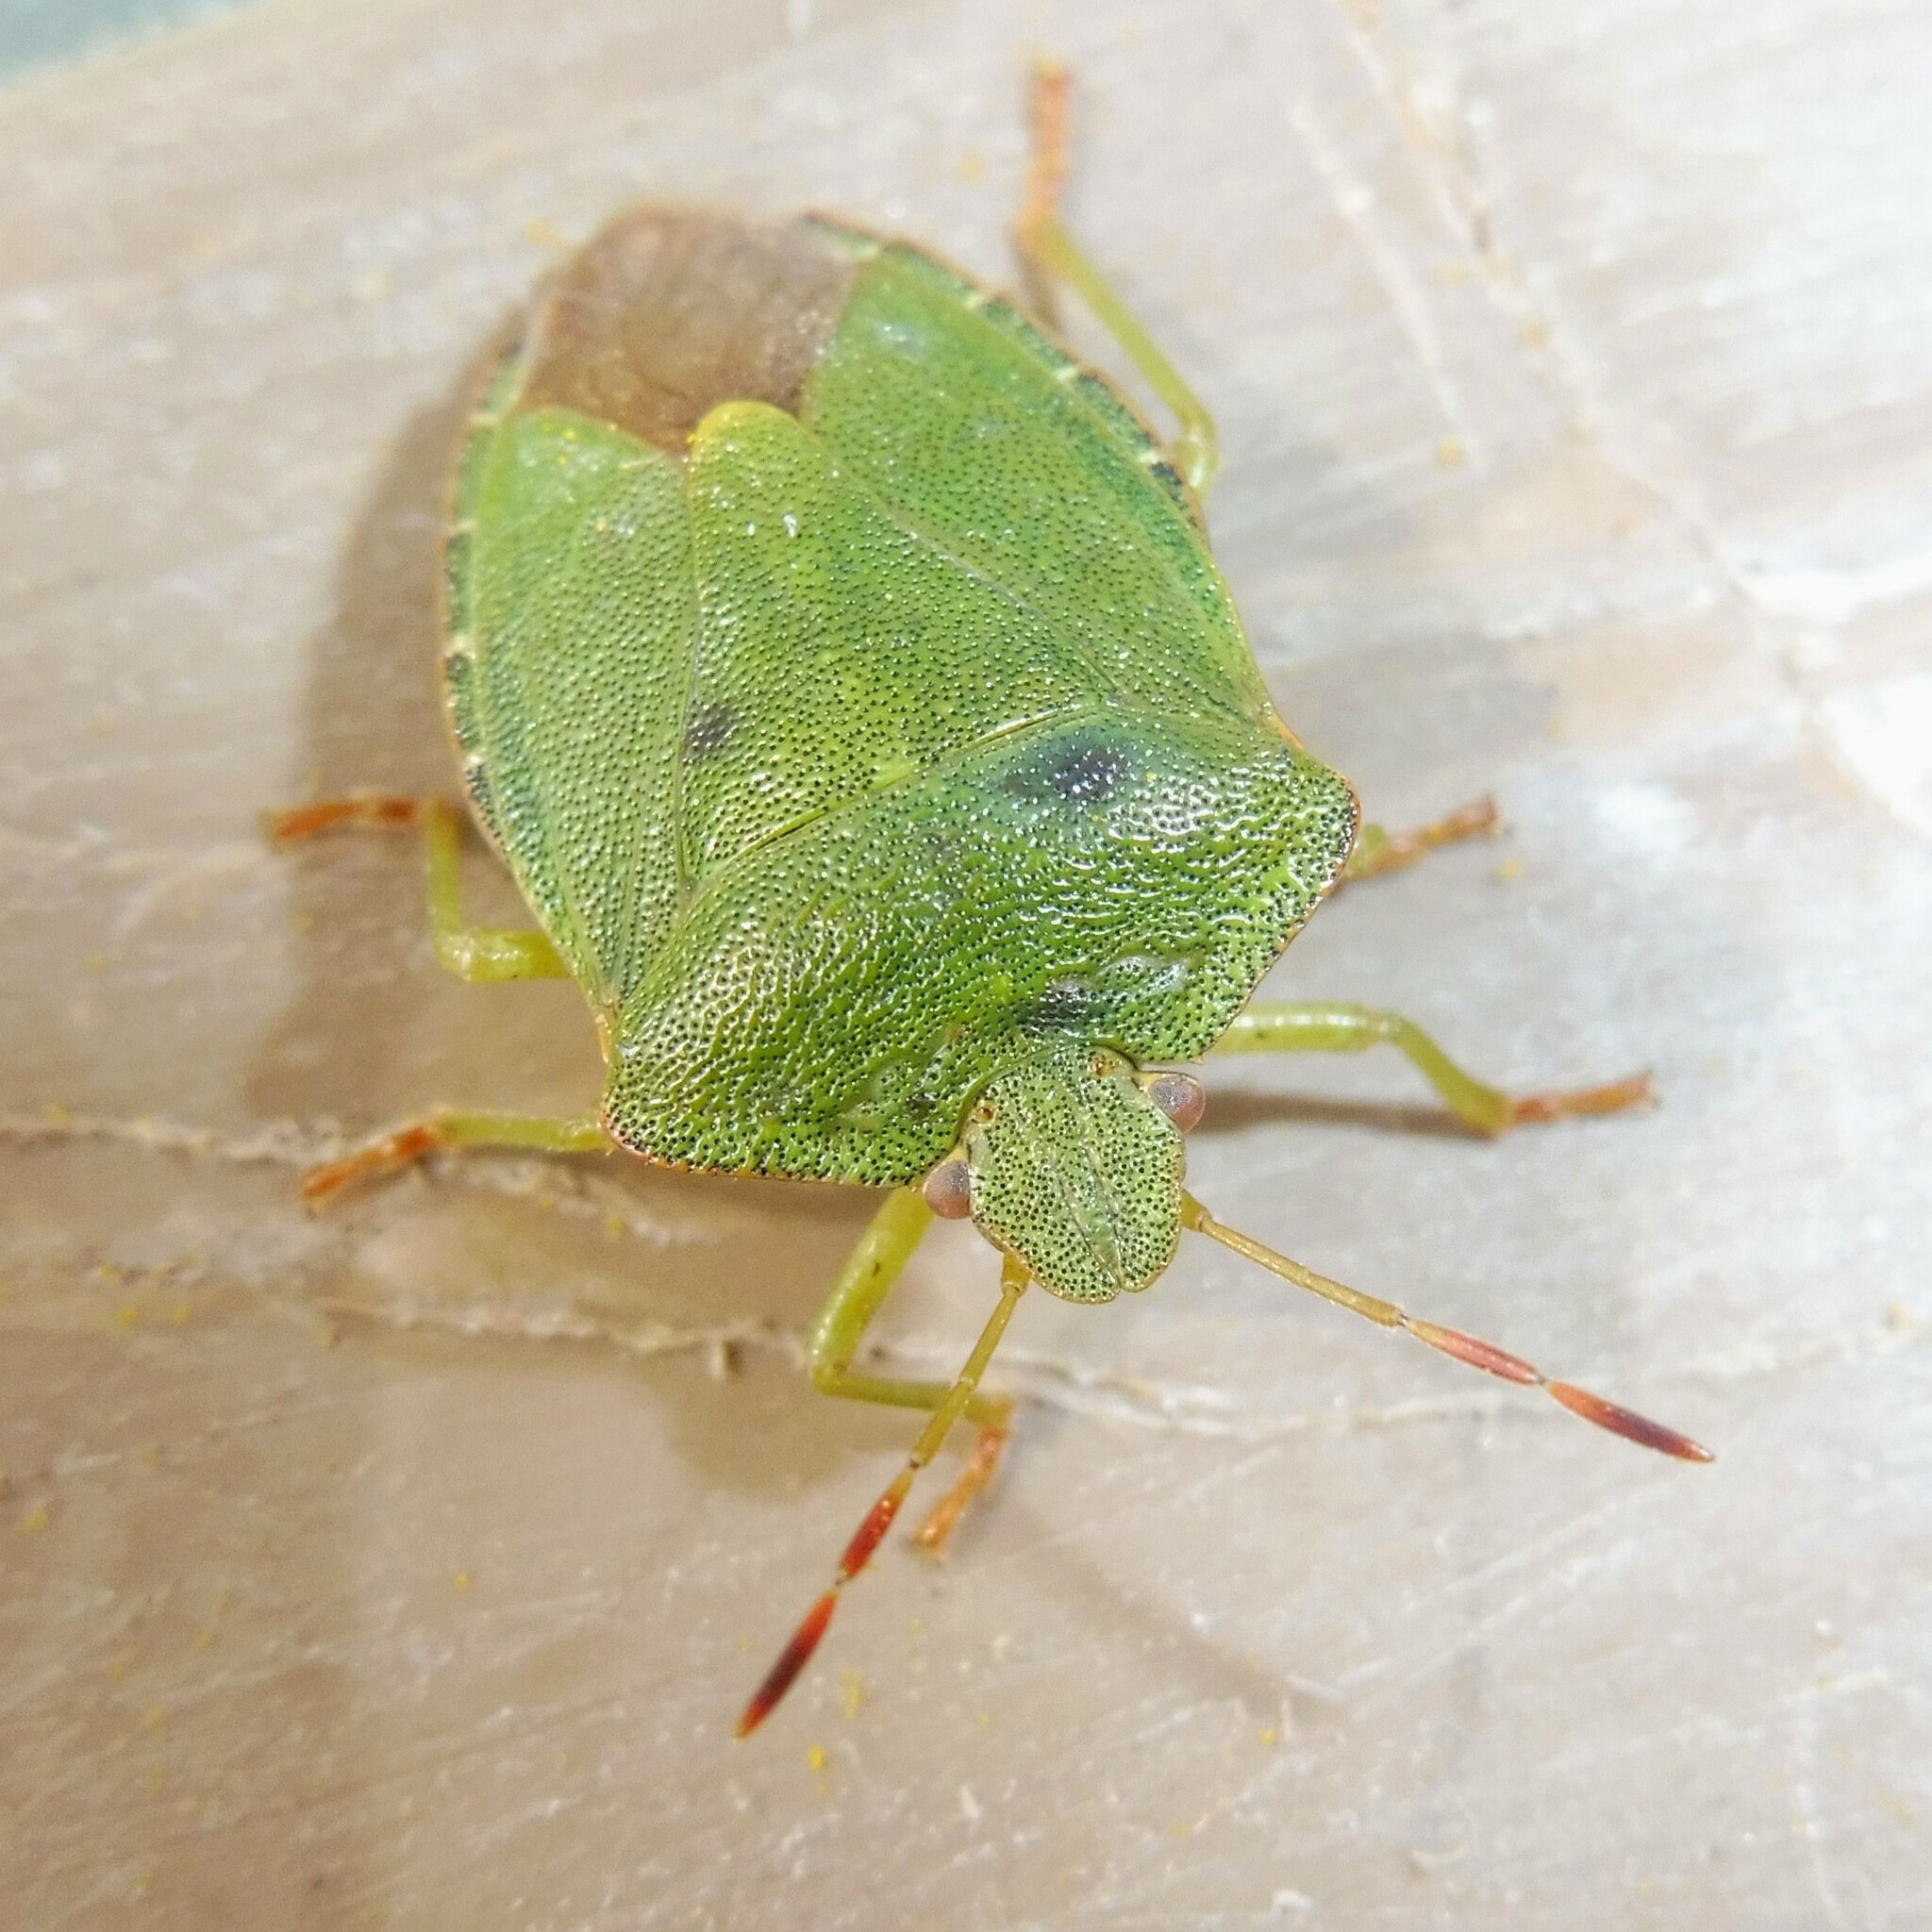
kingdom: Animalia
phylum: Arthropoda
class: Insecta
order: Hemiptera
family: Pentatomidae
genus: Palomena
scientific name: Palomena prasina
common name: Green shieldbug
